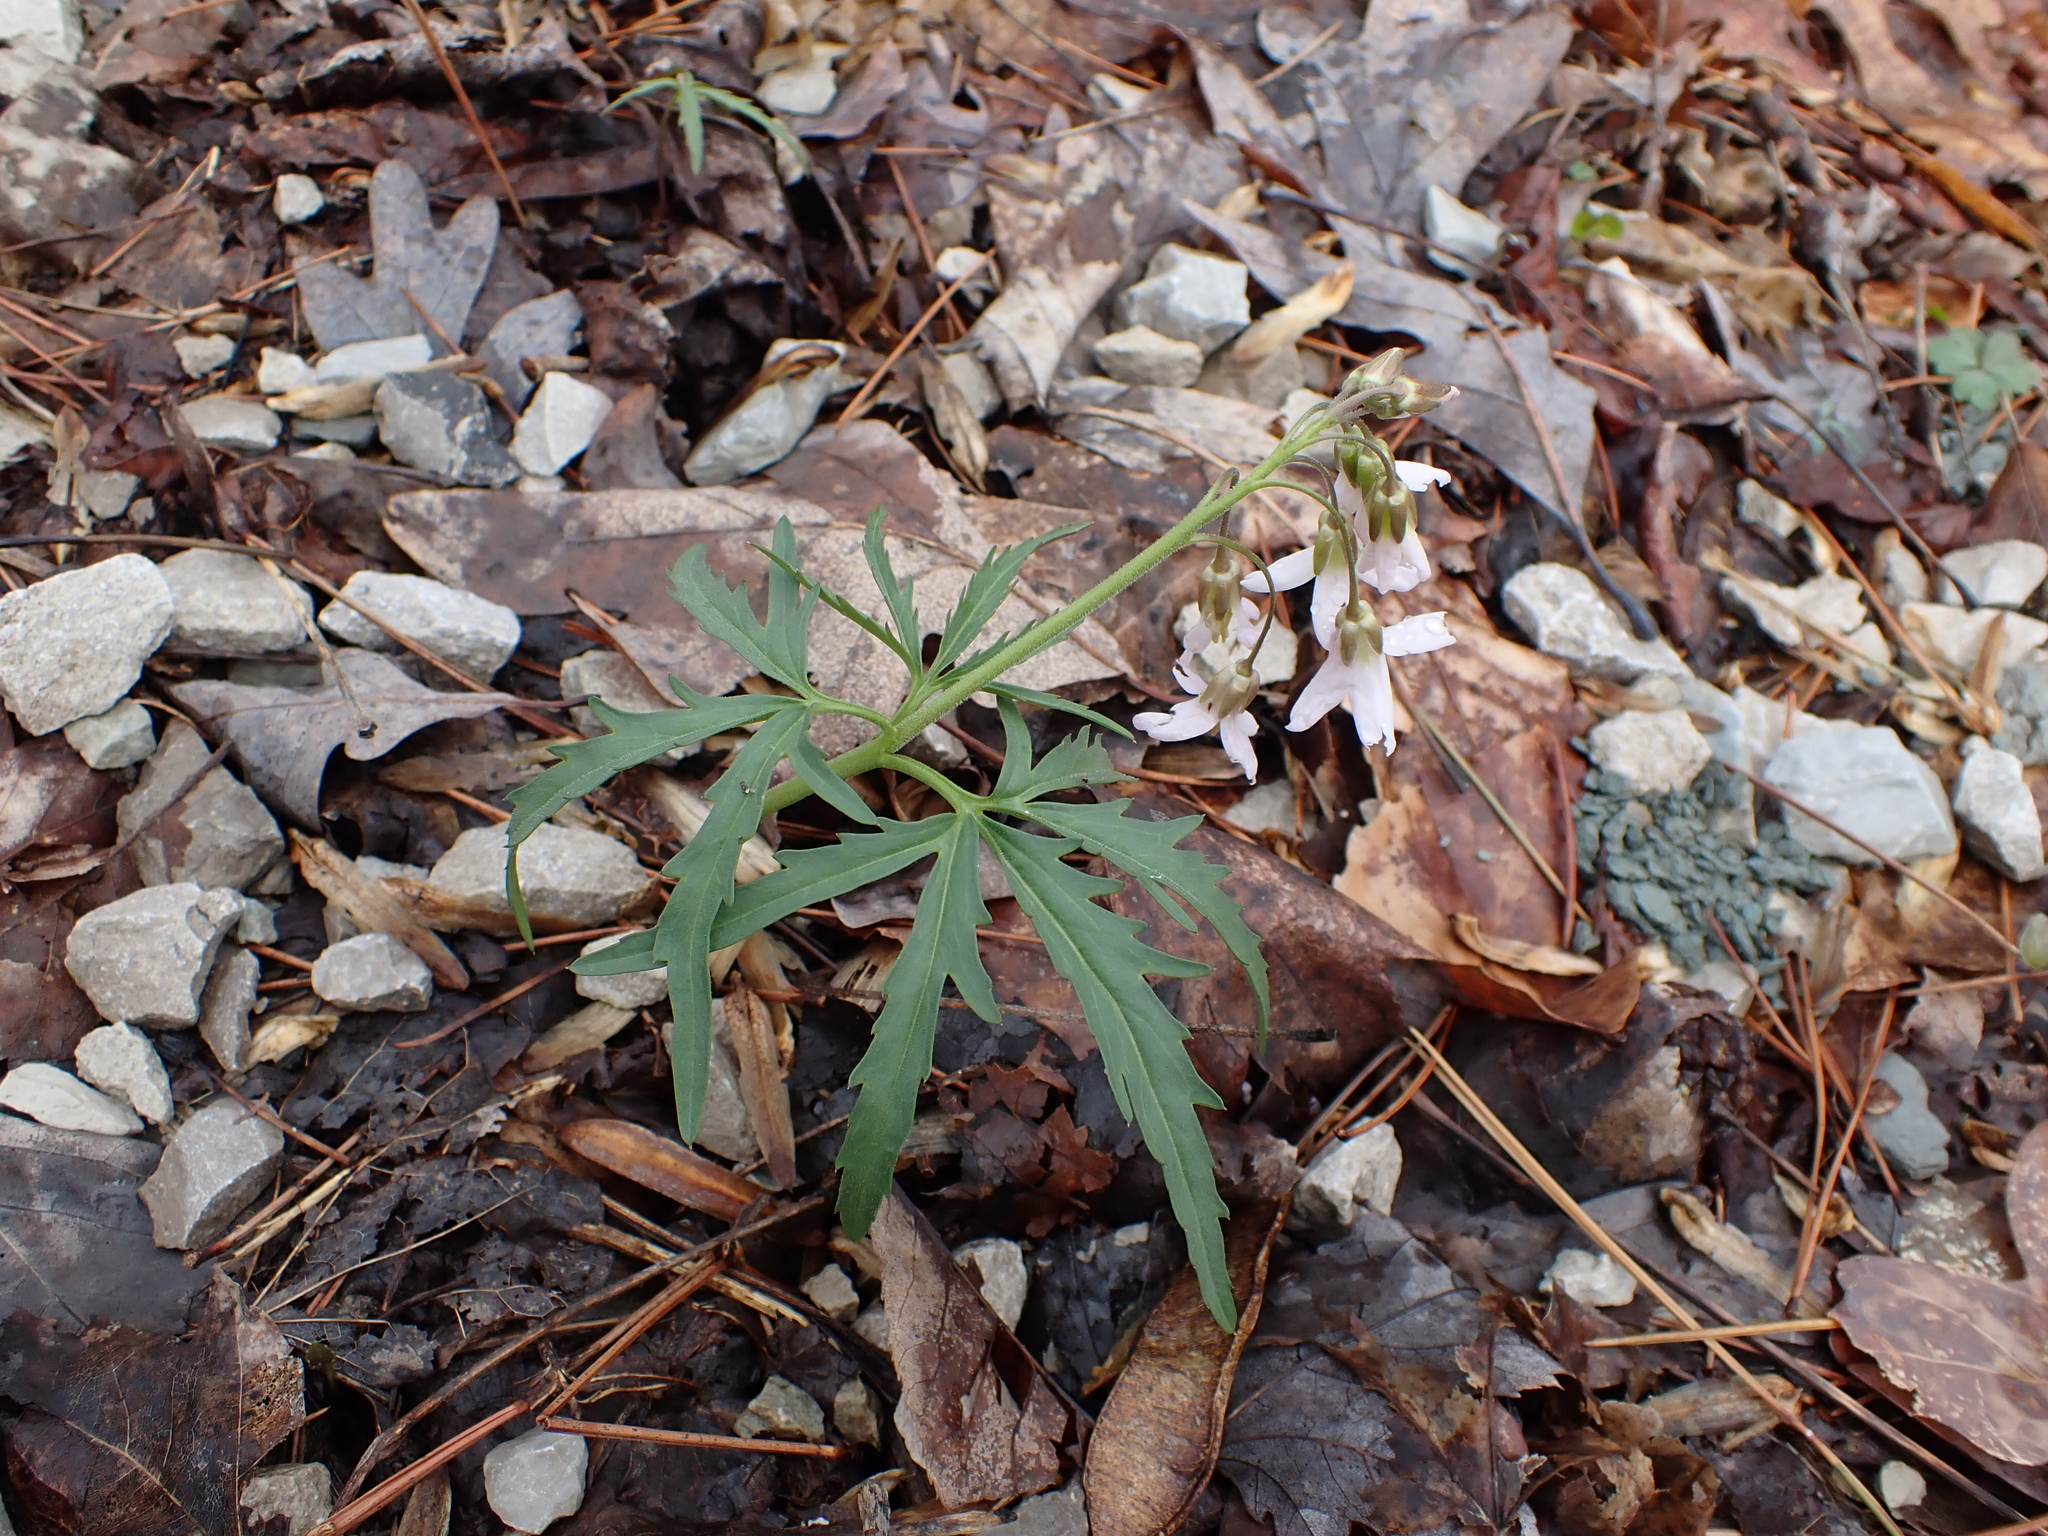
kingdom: Plantae
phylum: Tracheophyta
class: Magnoliopsida
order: Brassicales
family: Brassicaceae
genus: Cardamine
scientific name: Cardamine concatenata
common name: Cut-leaf toothcup
